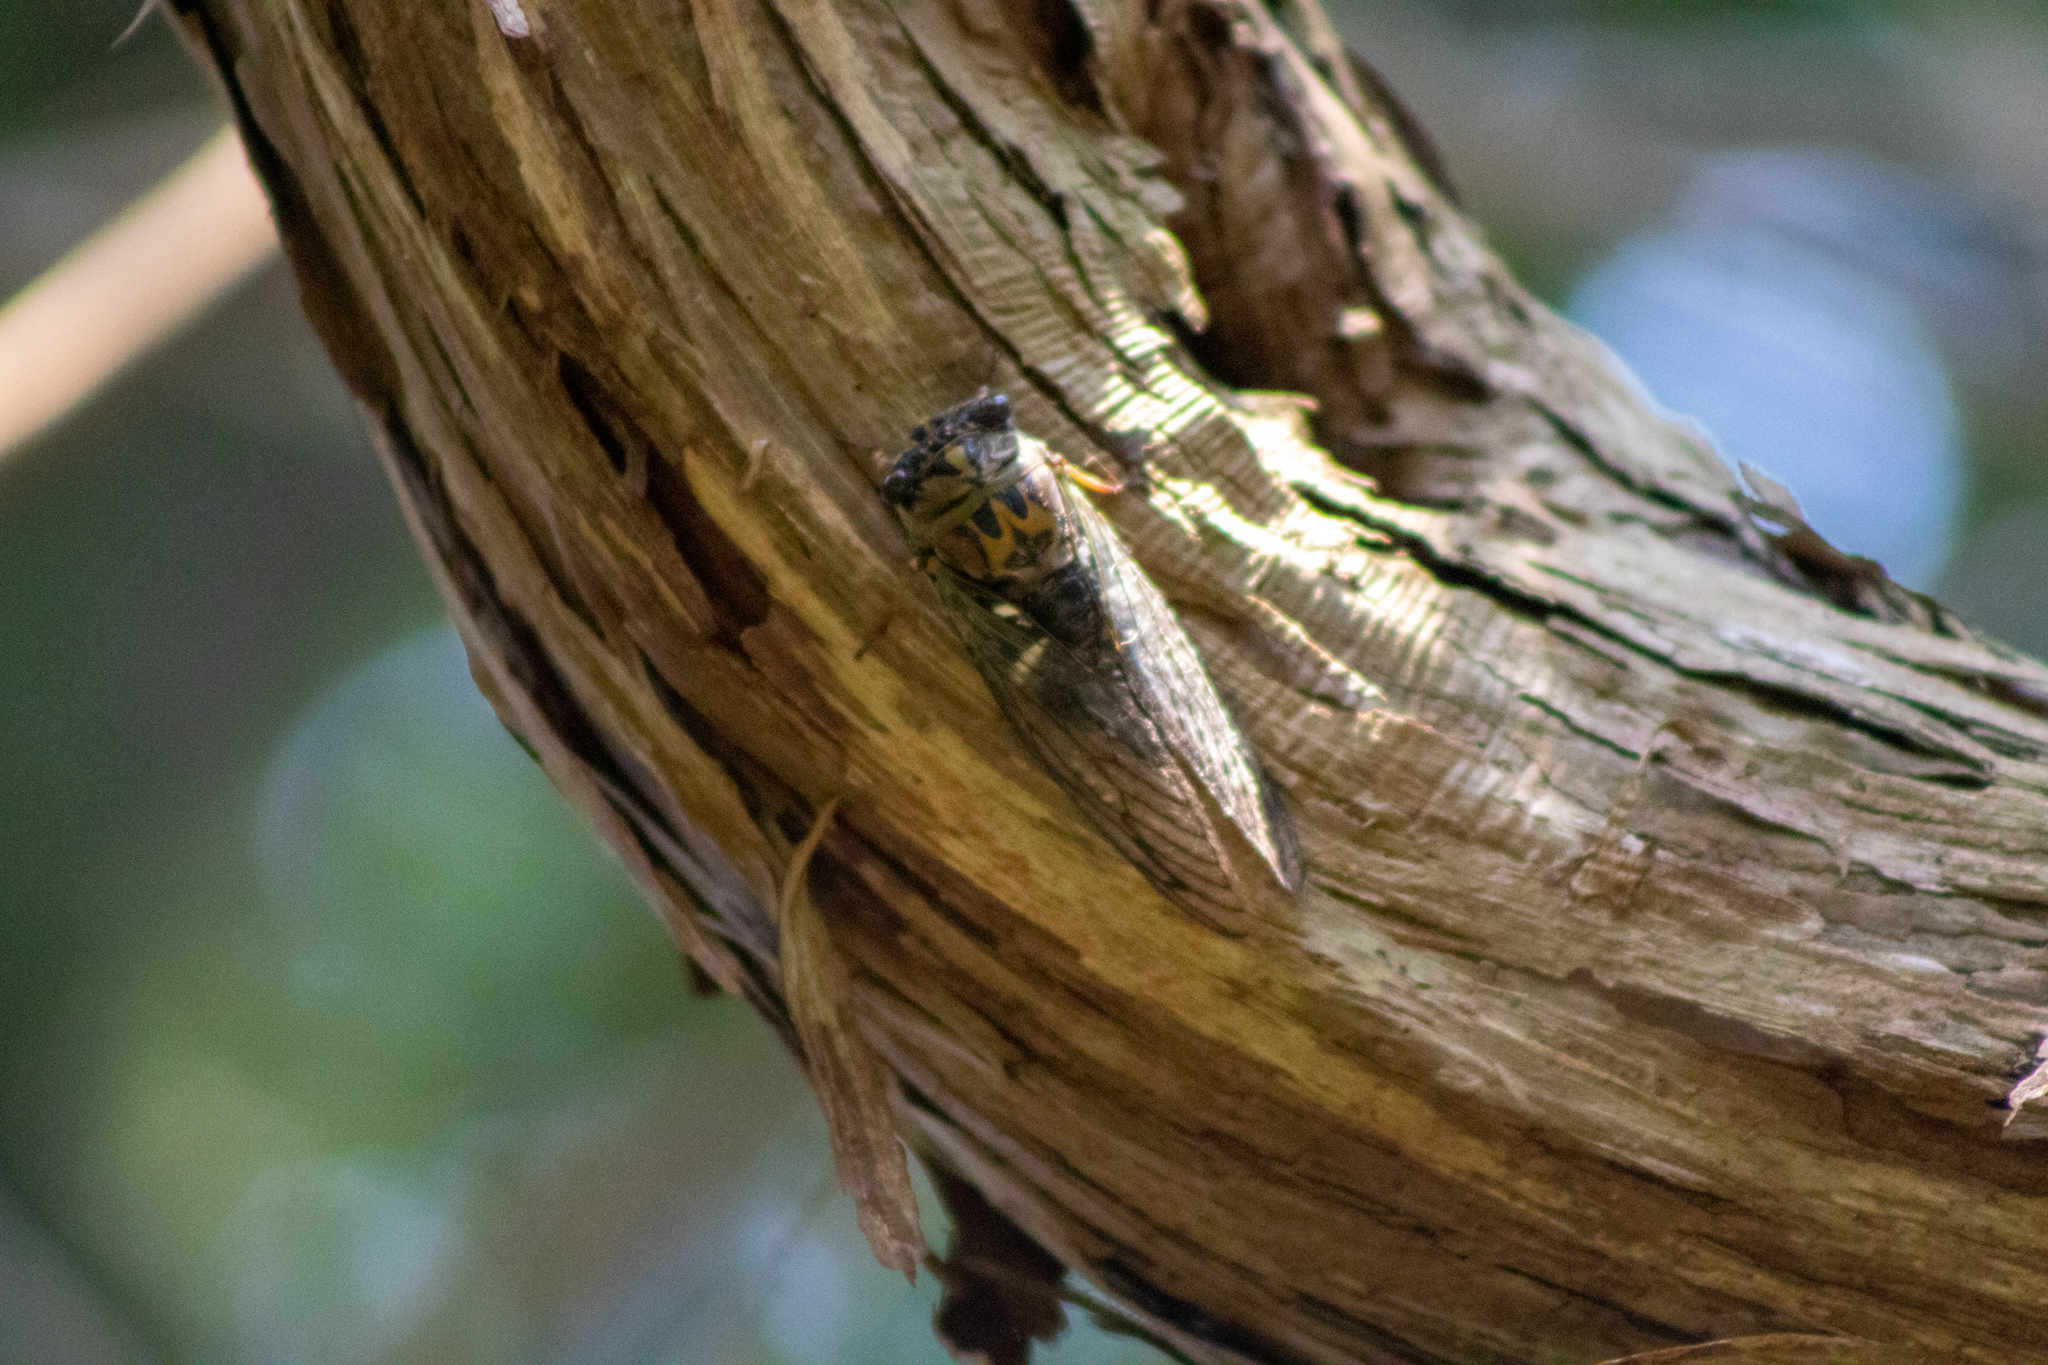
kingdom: Animalia
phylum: Arthropoda
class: Insecta
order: Hemiptera
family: Cicadidae
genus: Neotibicen
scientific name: Neotibicen latifasciatus
